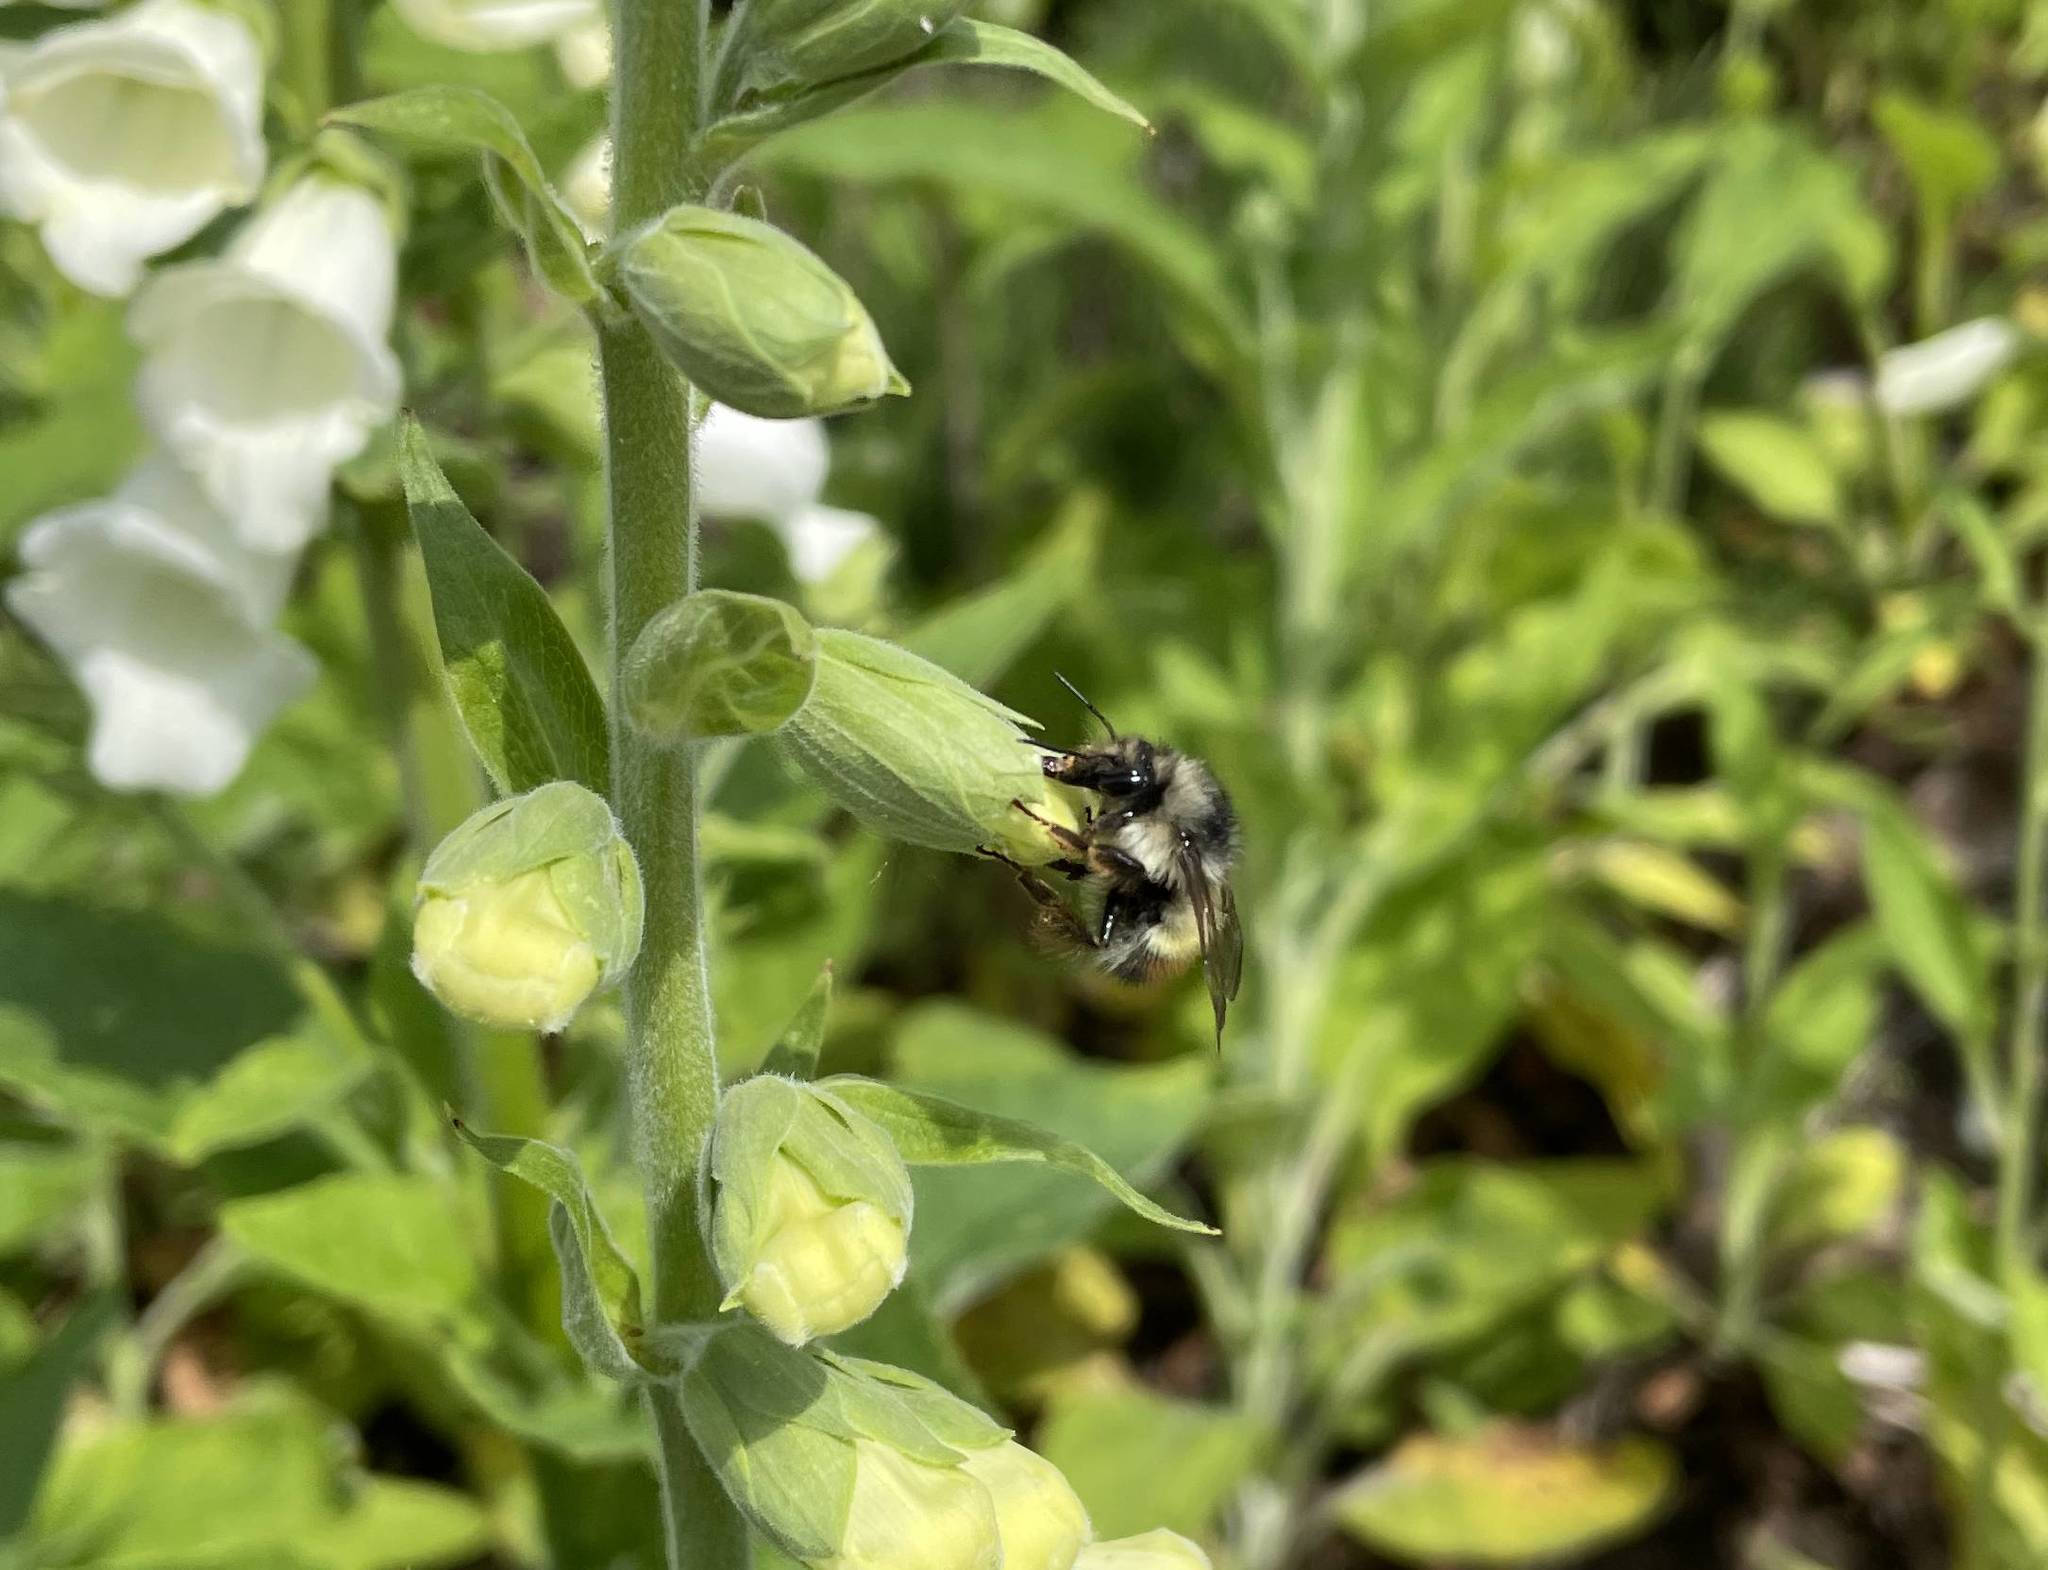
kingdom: Animalia
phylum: Arthropoda
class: Insecta
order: Hymenoptera
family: Apidae
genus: Bombus
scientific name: Bombus flavifrons
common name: Yellow head bumble bee
